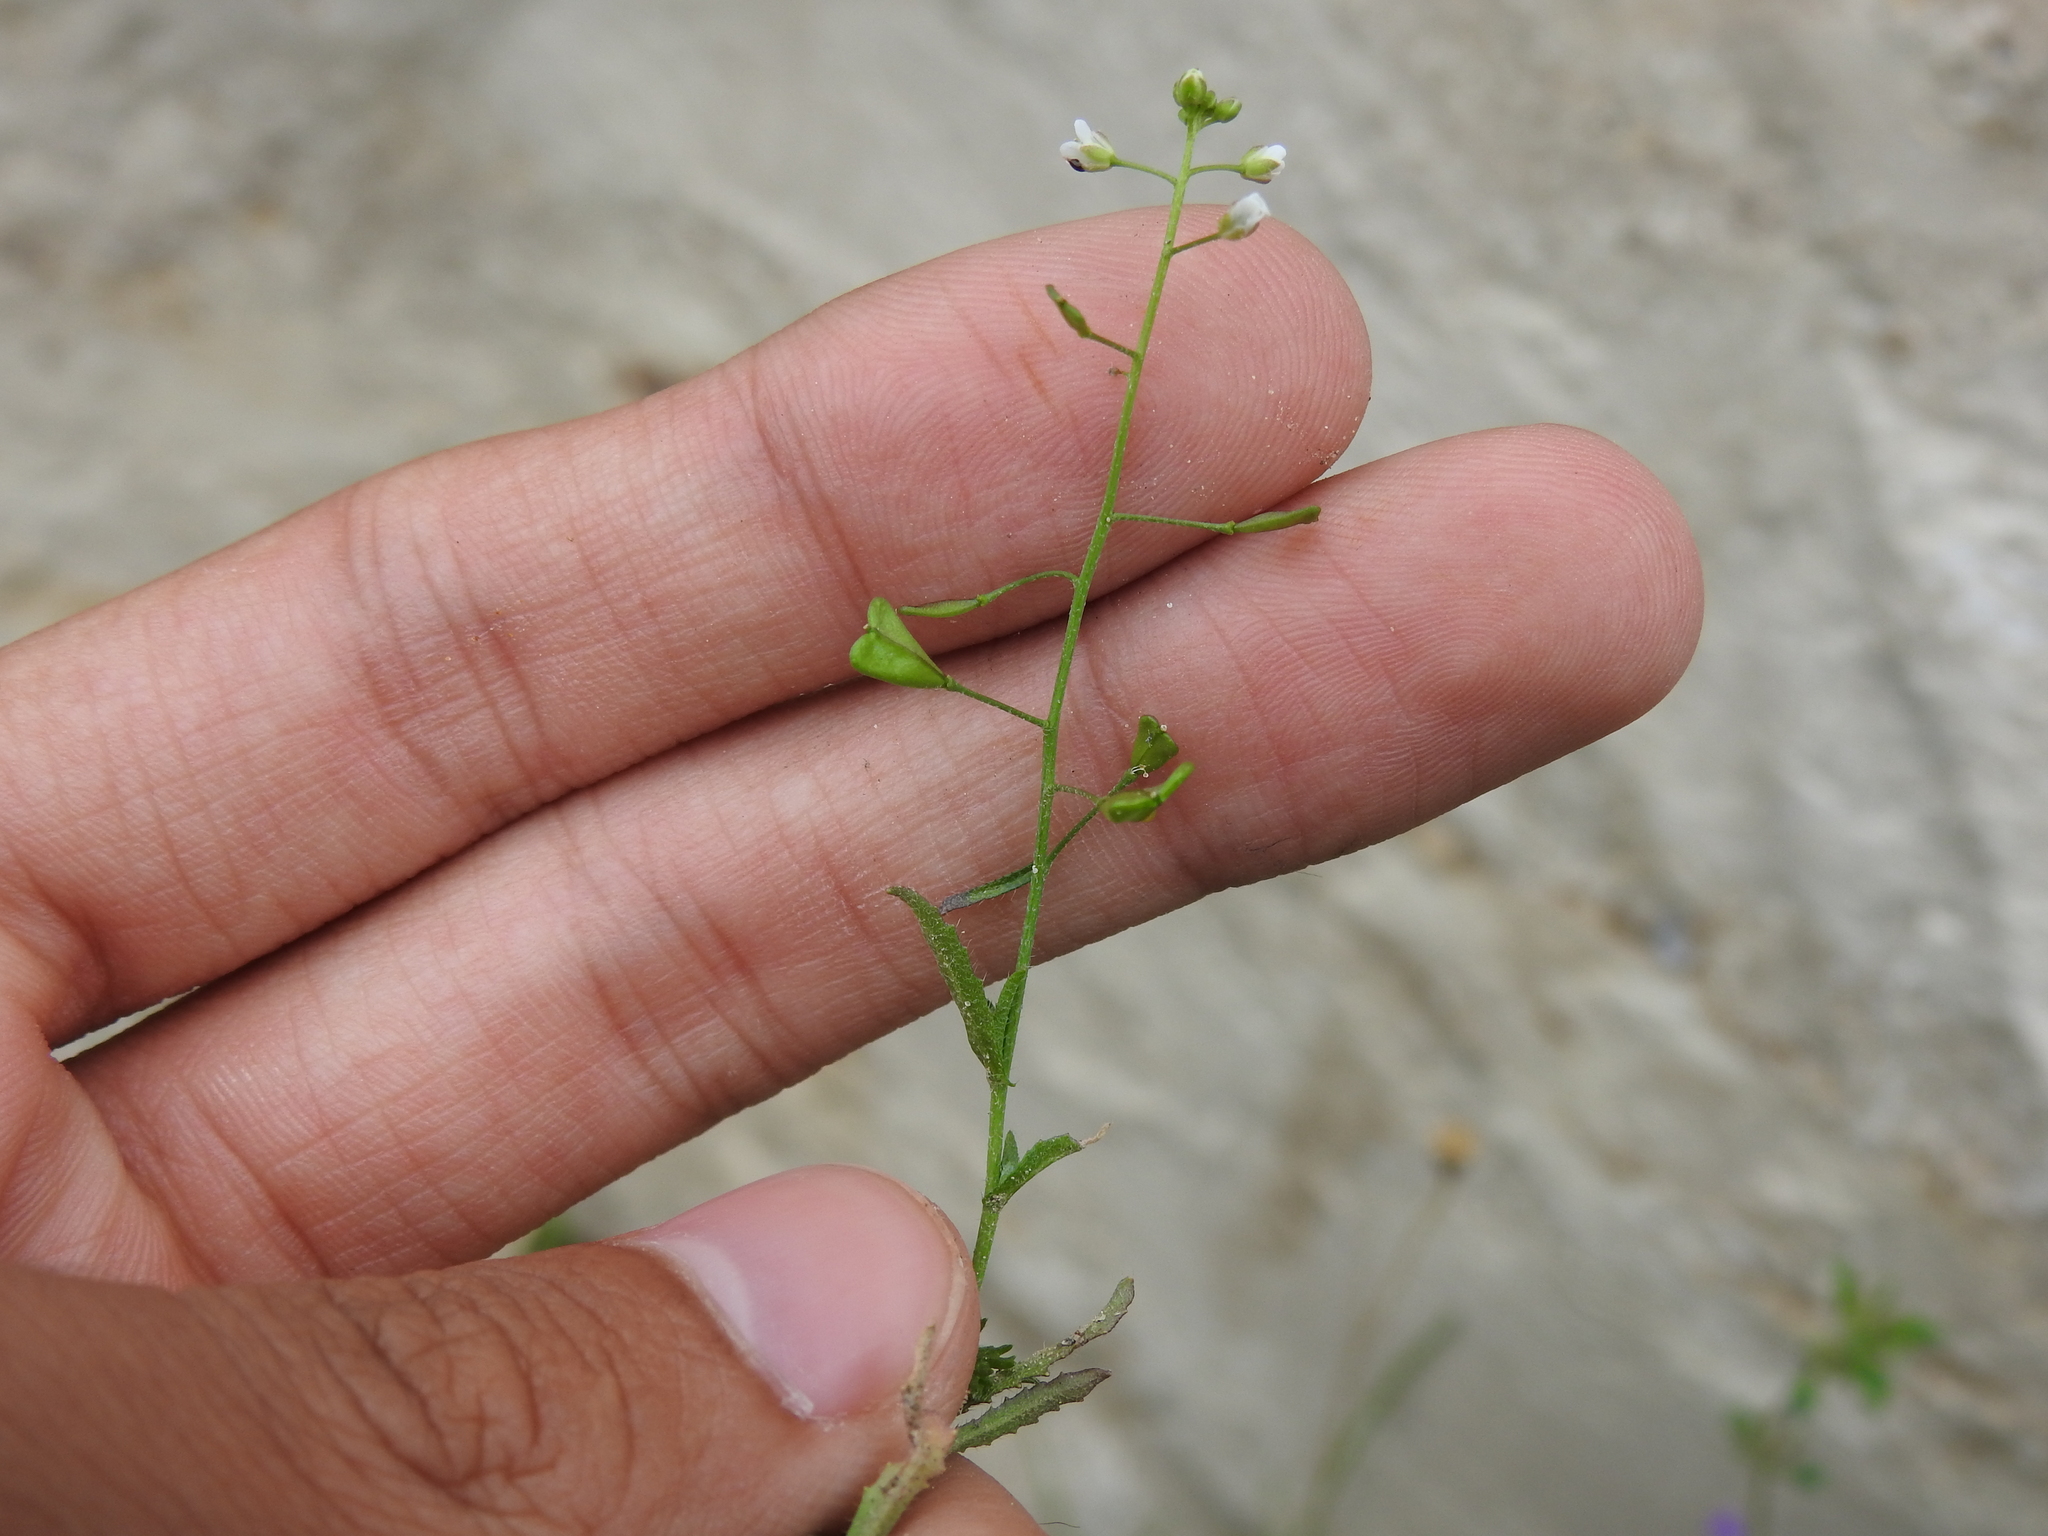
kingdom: Plantae
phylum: Tracheophyta
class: Magnoliopsida
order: Brassicales
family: Brassicaceae
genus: Capsella
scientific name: Capsella bursa-pastoris
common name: Shepherd's purse
